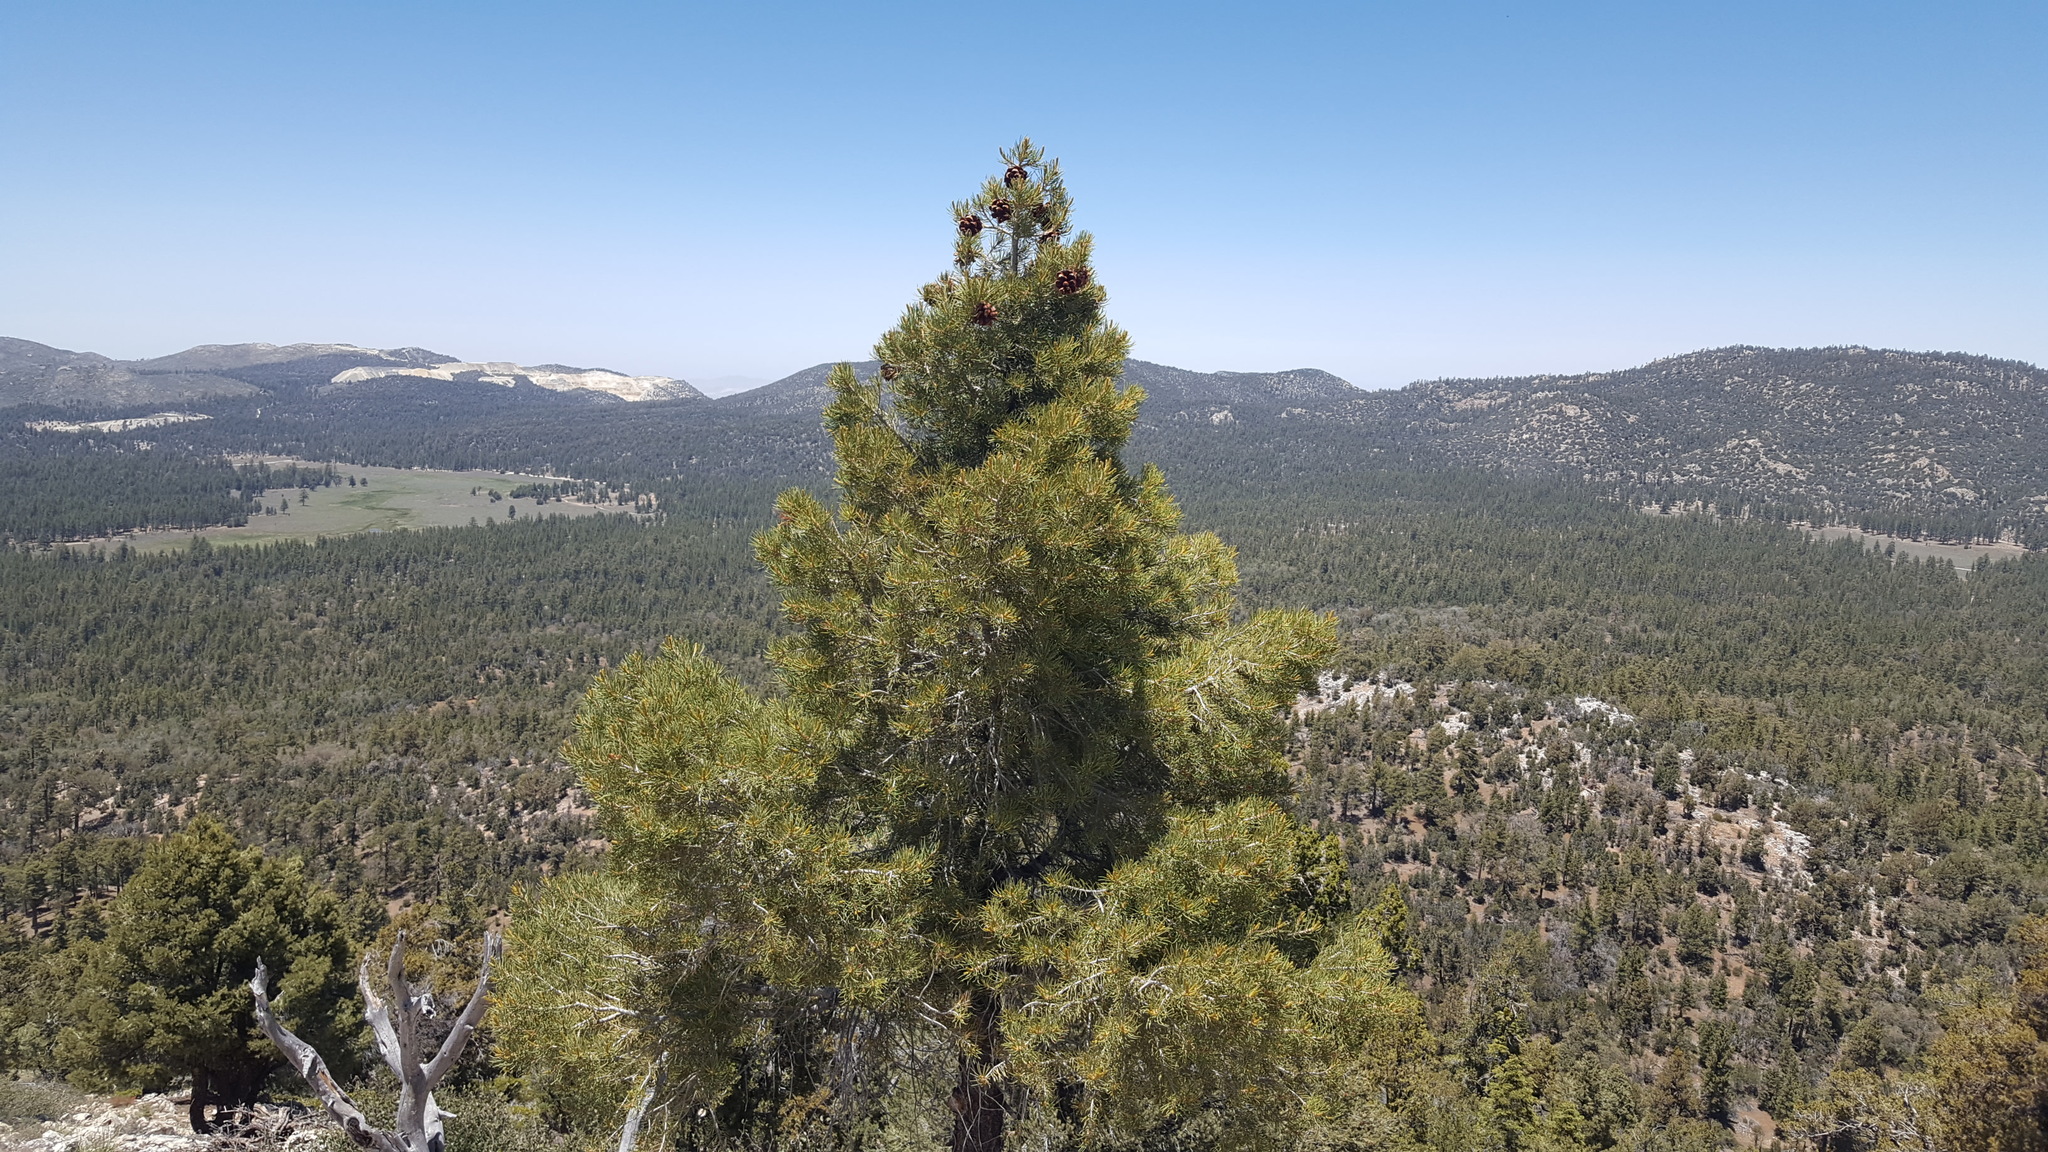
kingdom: Plantae
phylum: Tracheophyta
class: Pinopsida
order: Pinales
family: Pinaceae
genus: Pinus
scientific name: Pinus monophylla
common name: One-leaved nut pine
